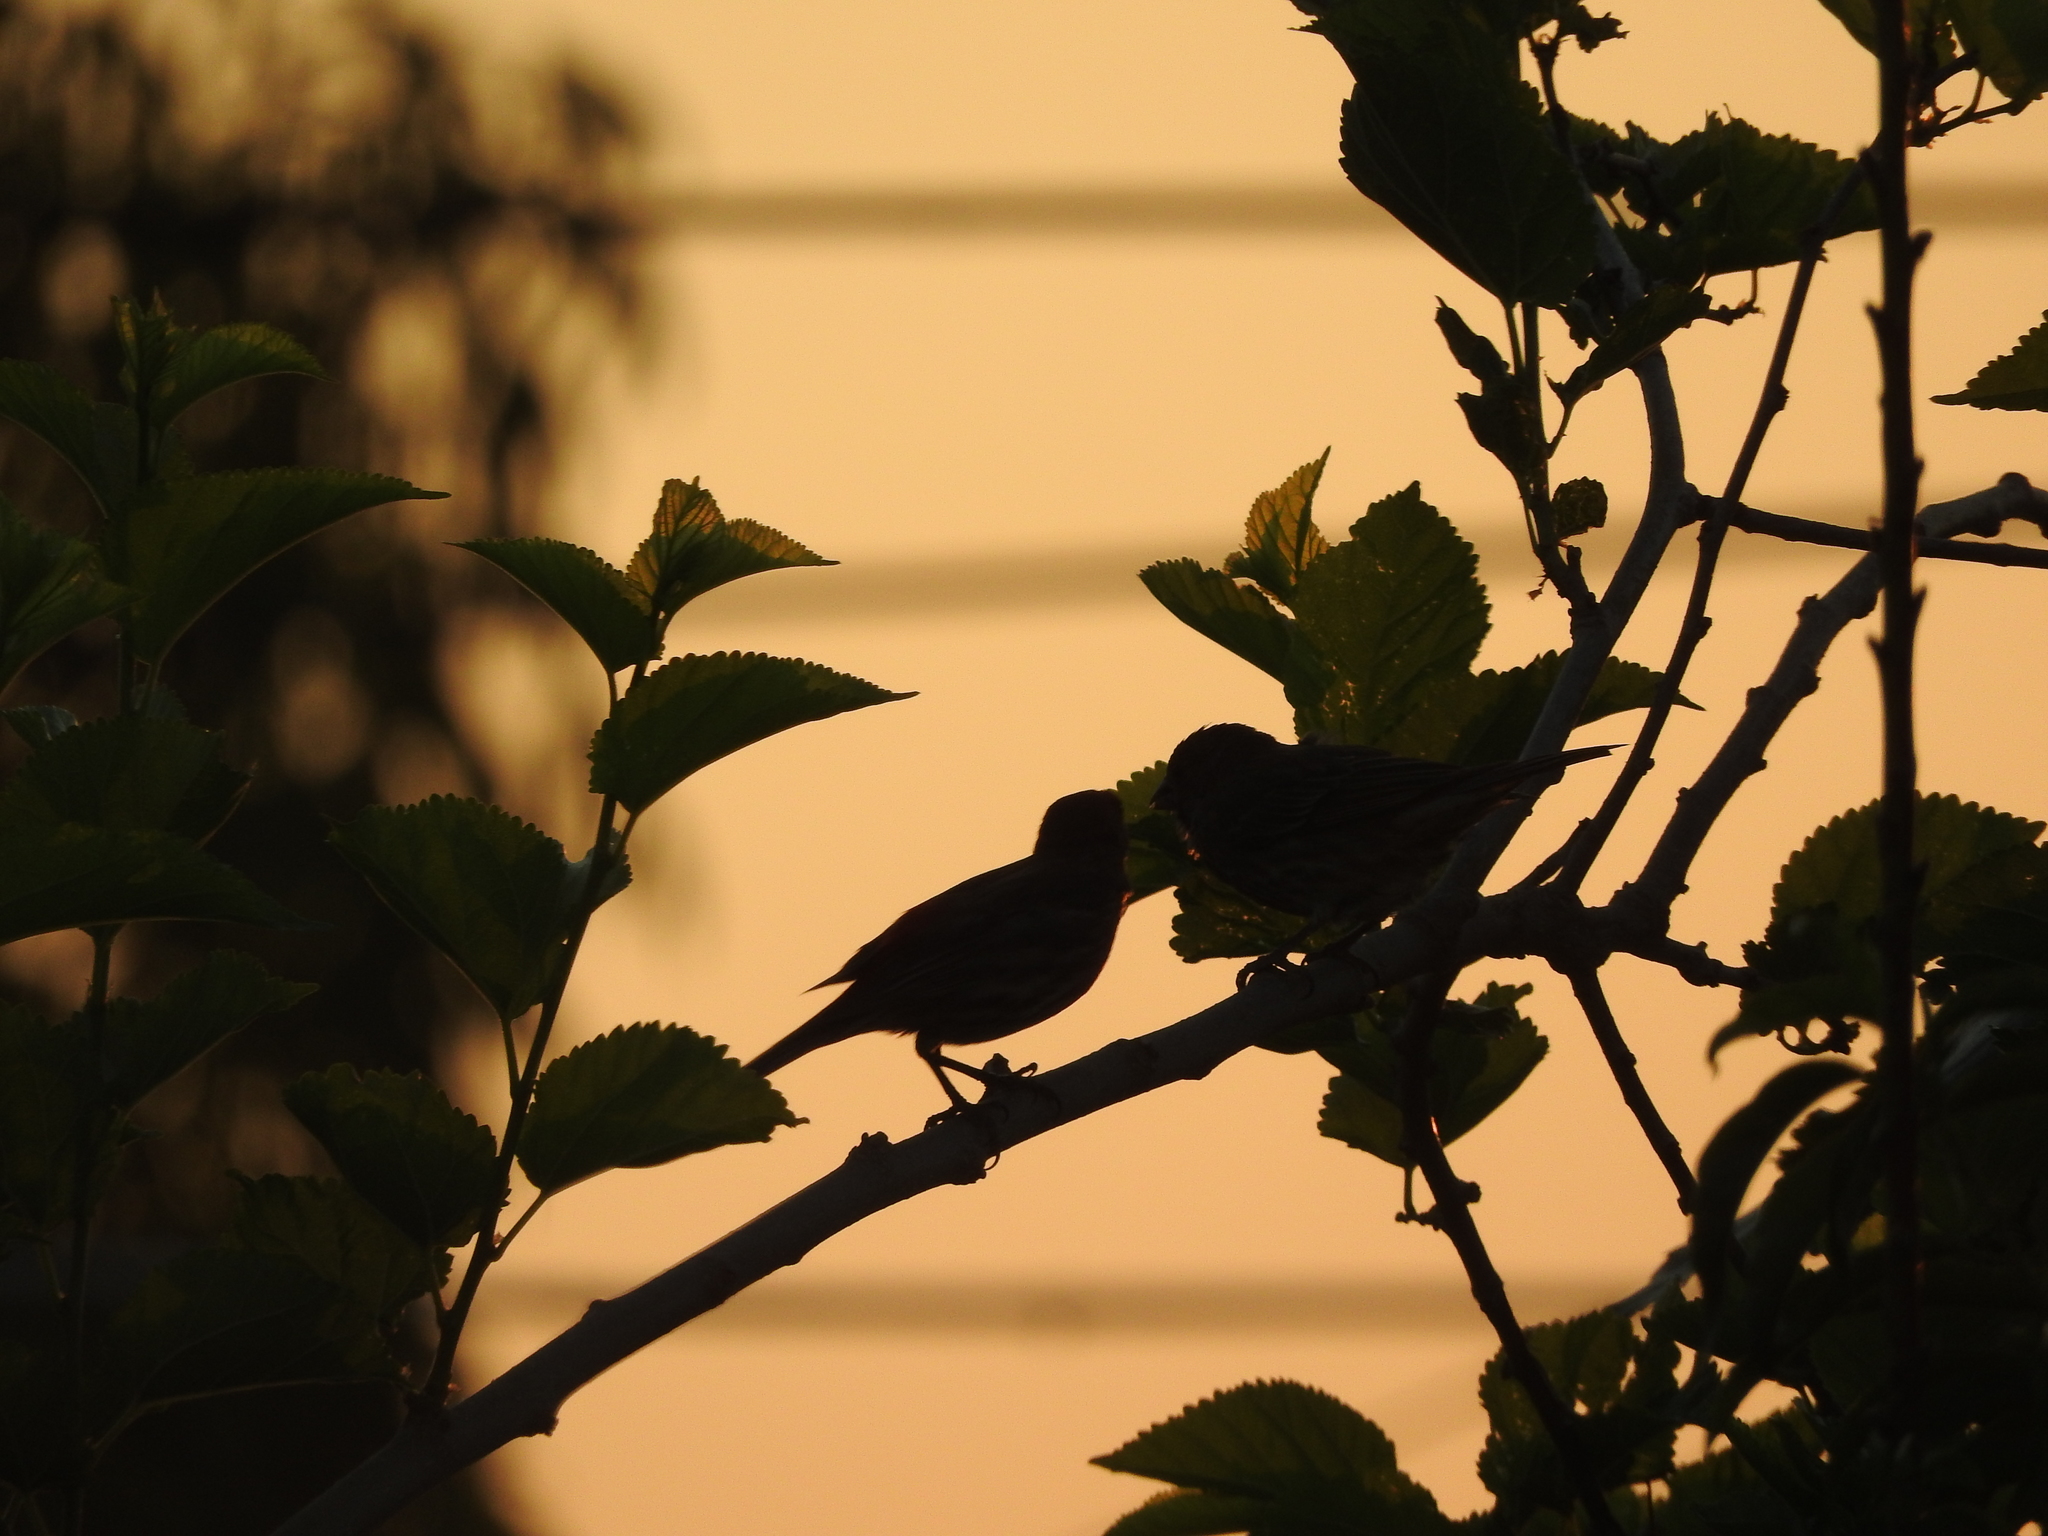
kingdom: Animalia
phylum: Chordata
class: Aves
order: Passeriformes
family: Fringillidae
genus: Haemorhous
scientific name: Haemorhous mexicanus
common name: House finch
